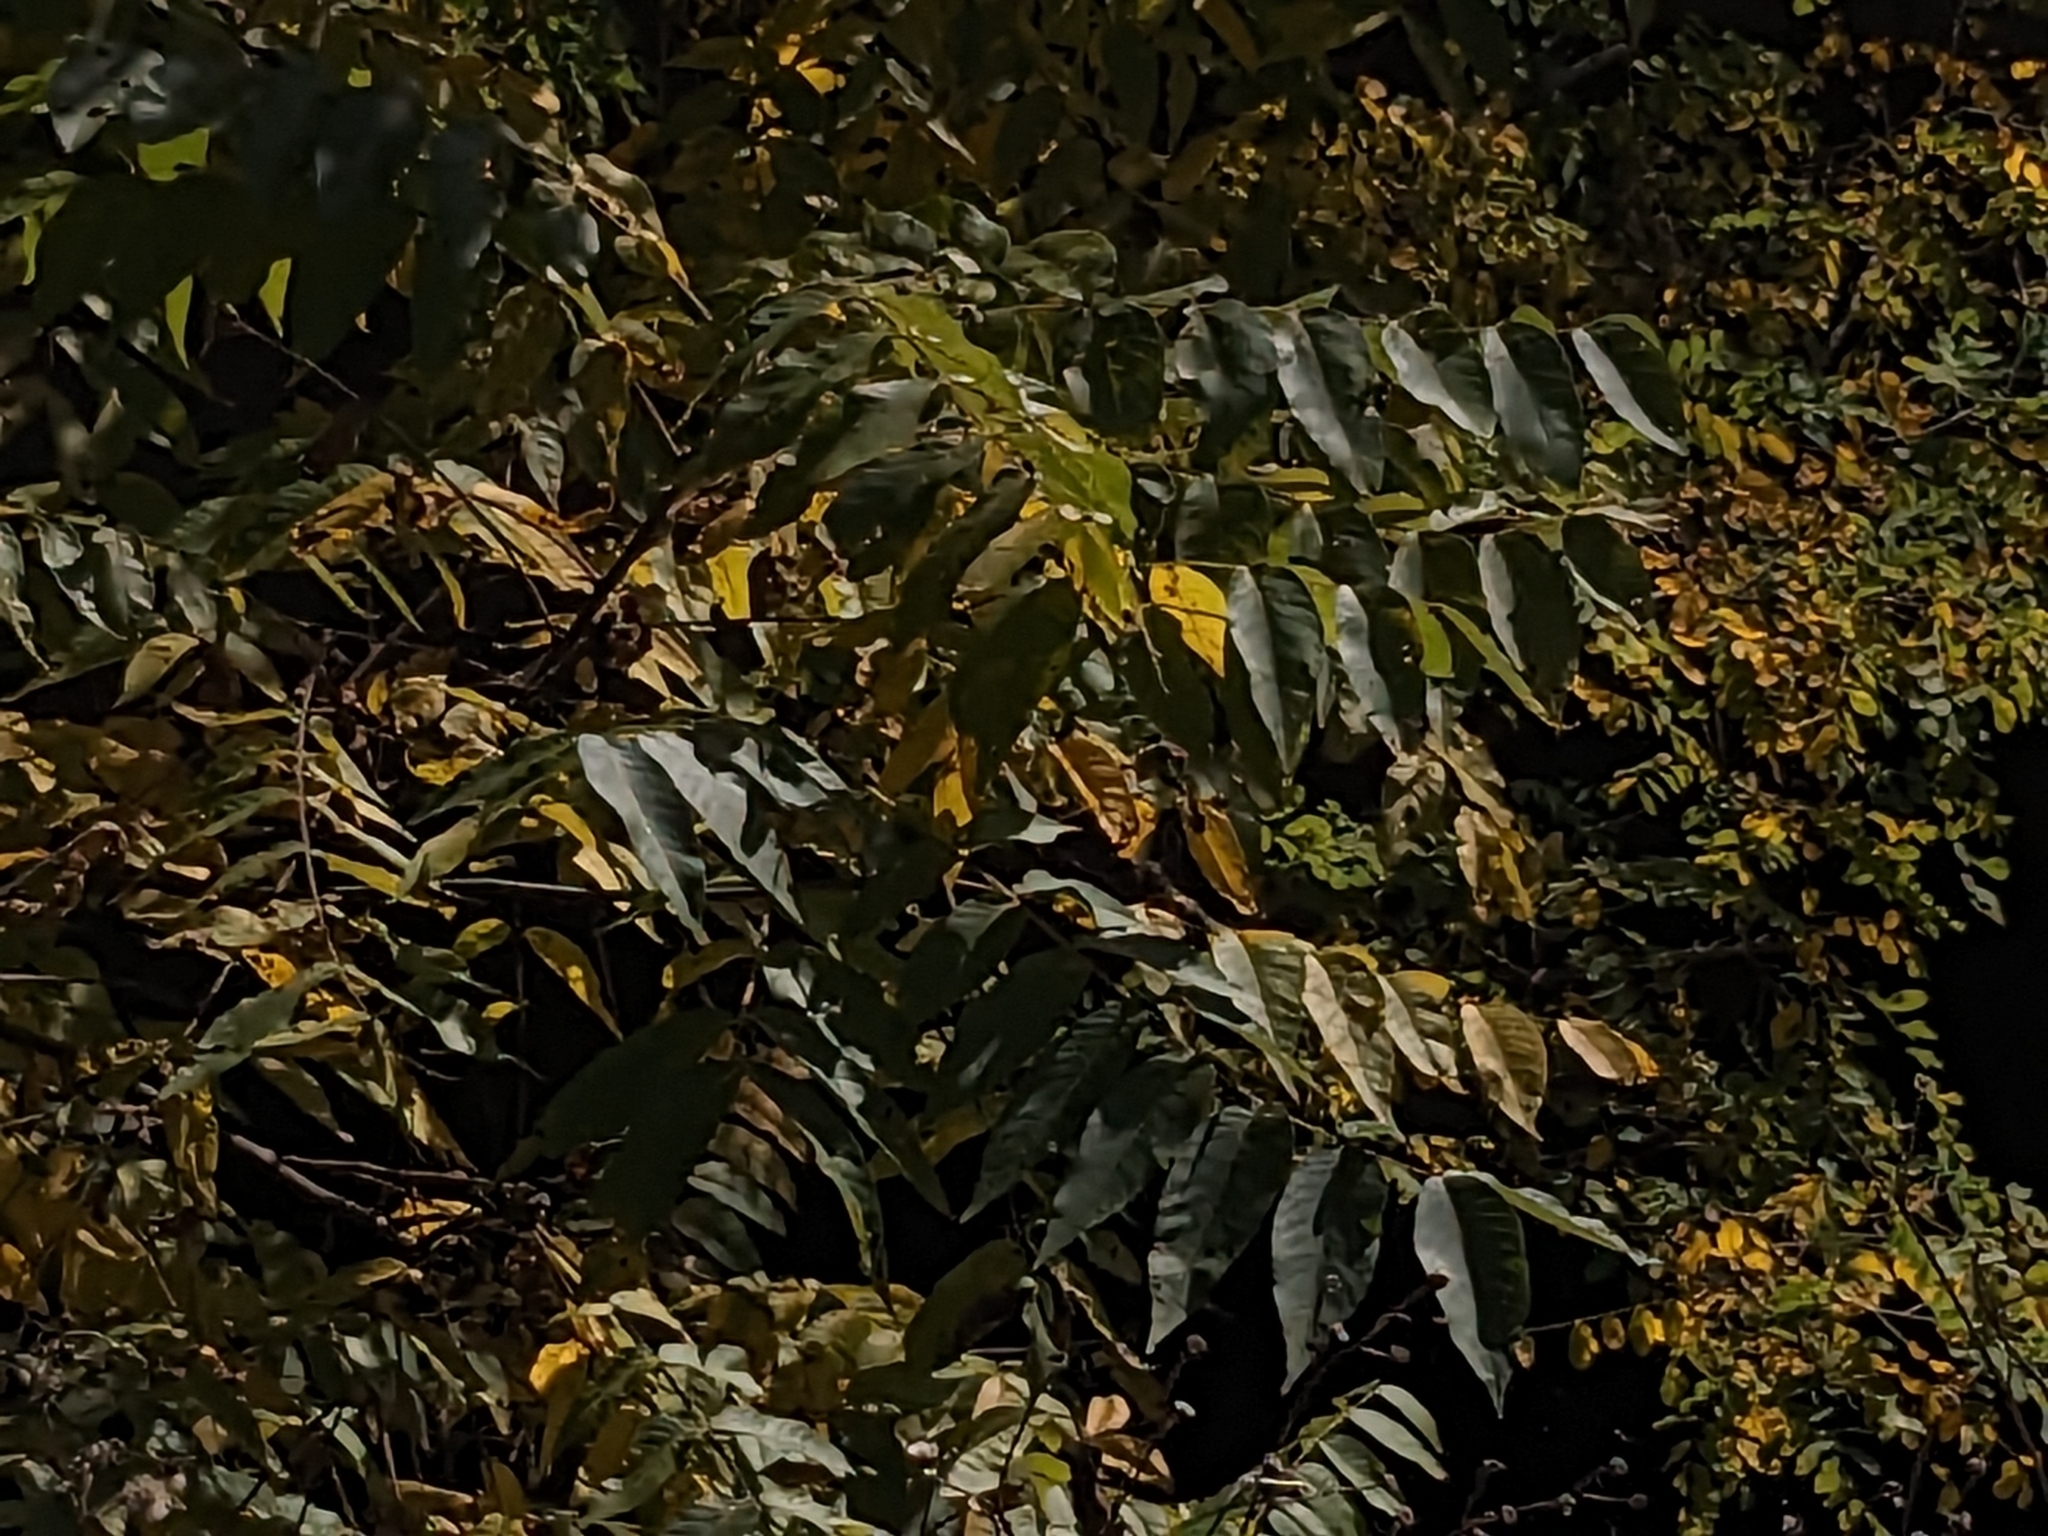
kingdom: Plantae
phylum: Tracheophyta
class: Magnoliopsida
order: Fagales
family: Juglandaceae
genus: Juglans
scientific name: Juglans nigra
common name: Black walnut
